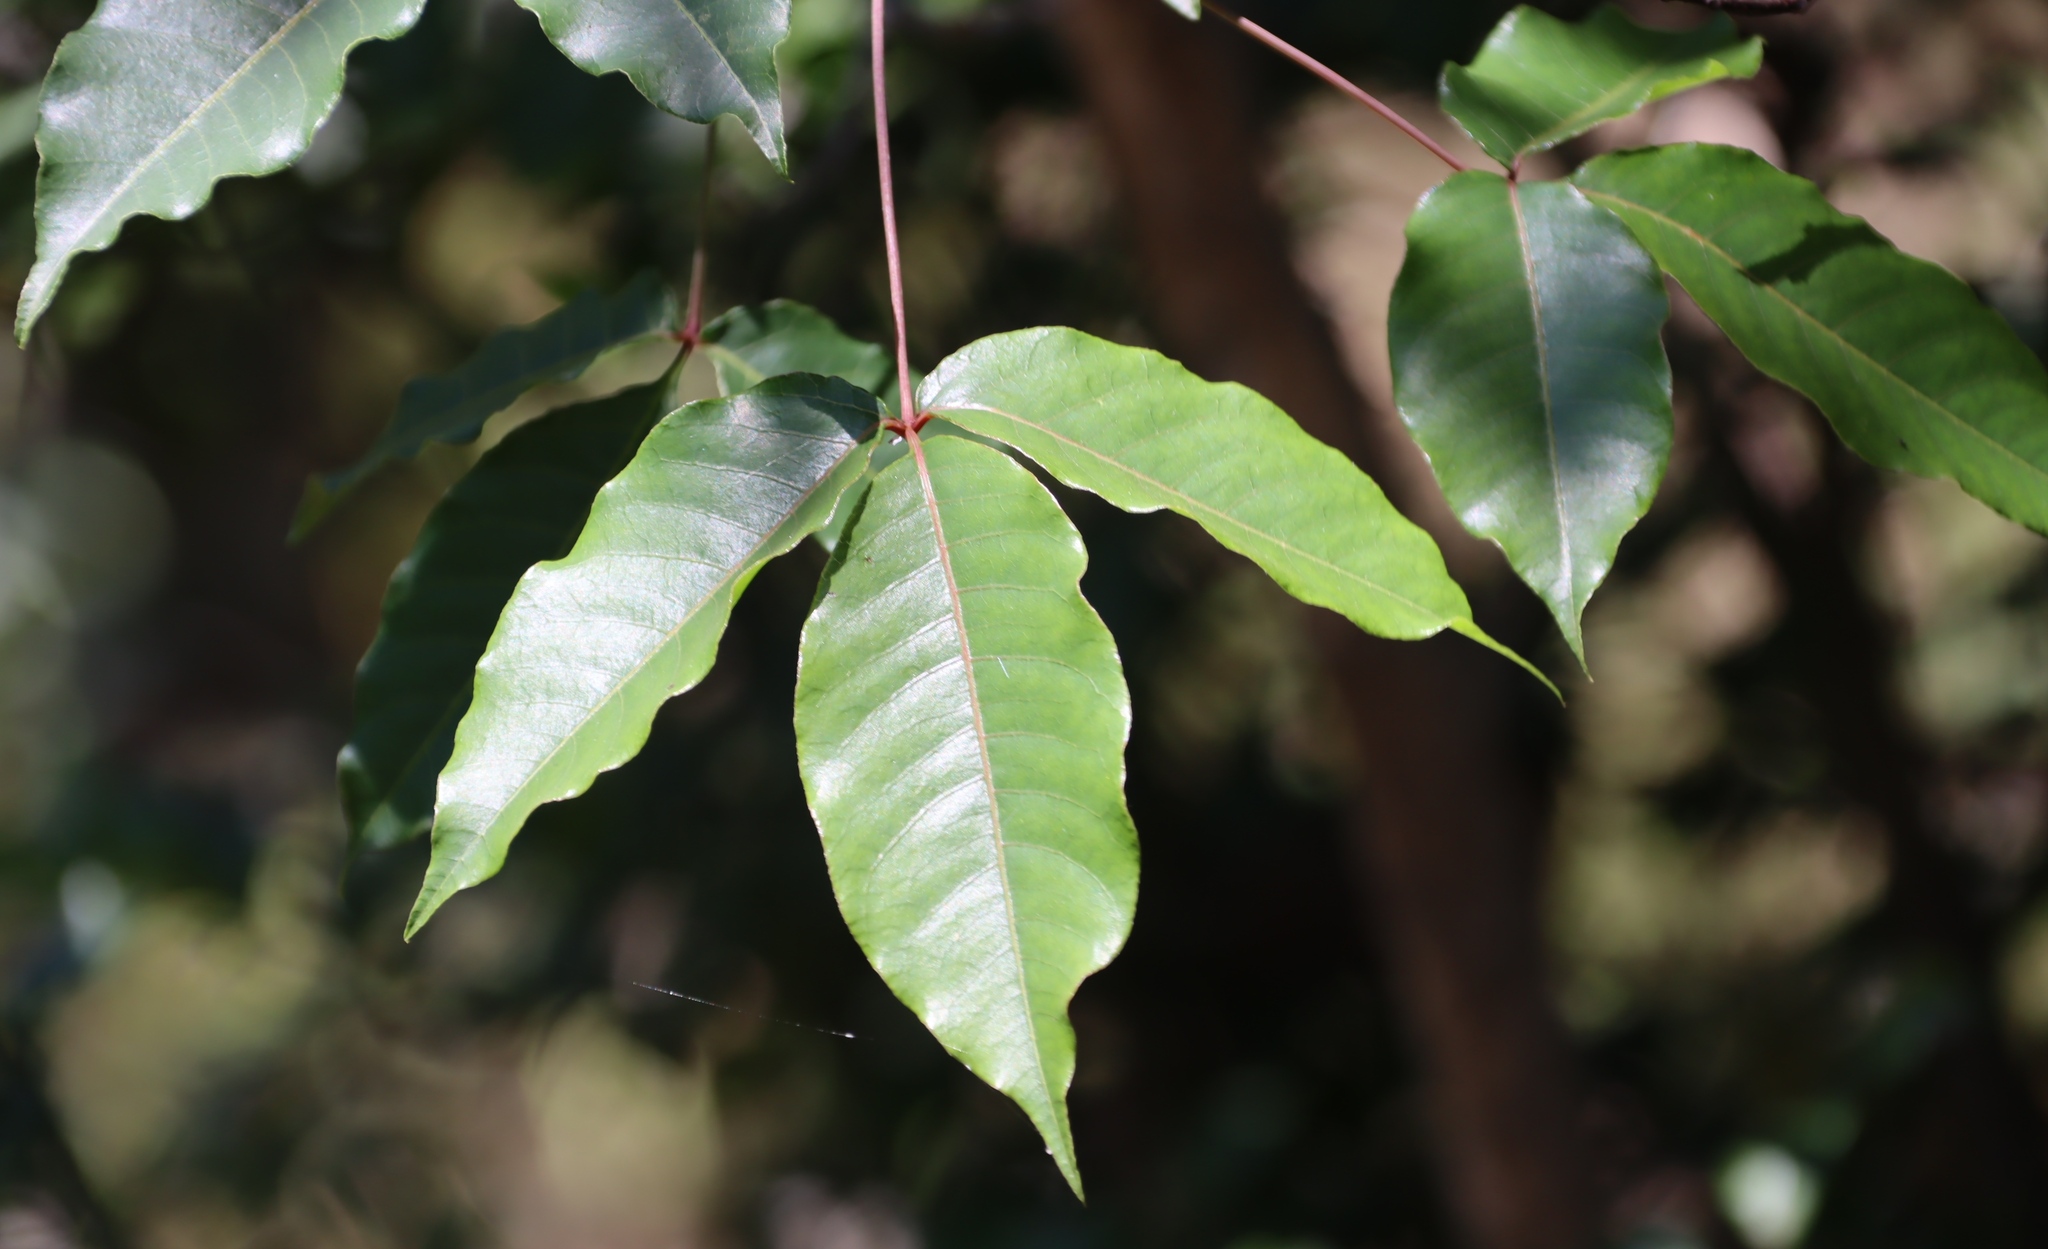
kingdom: Plantae
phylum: Tracheophyta
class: Magnoliopsida
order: Sapindales
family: Anacardiaceae
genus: Searsia
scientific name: Searsia chirindensis
